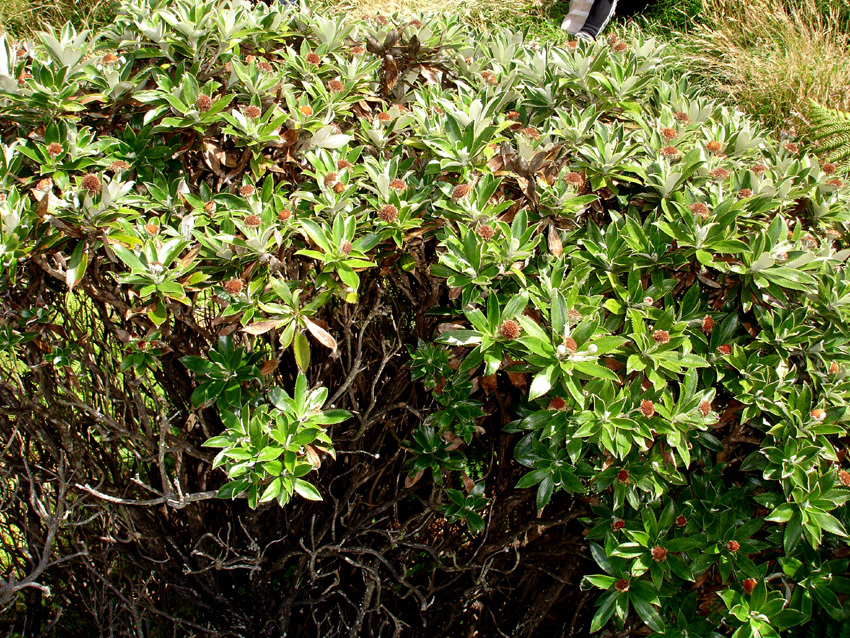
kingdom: Plantae
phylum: Tracheophyta
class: Magnoliopsida
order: Asterales
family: Asteraceae
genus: Macrolearia
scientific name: Macrolearia chathamica
